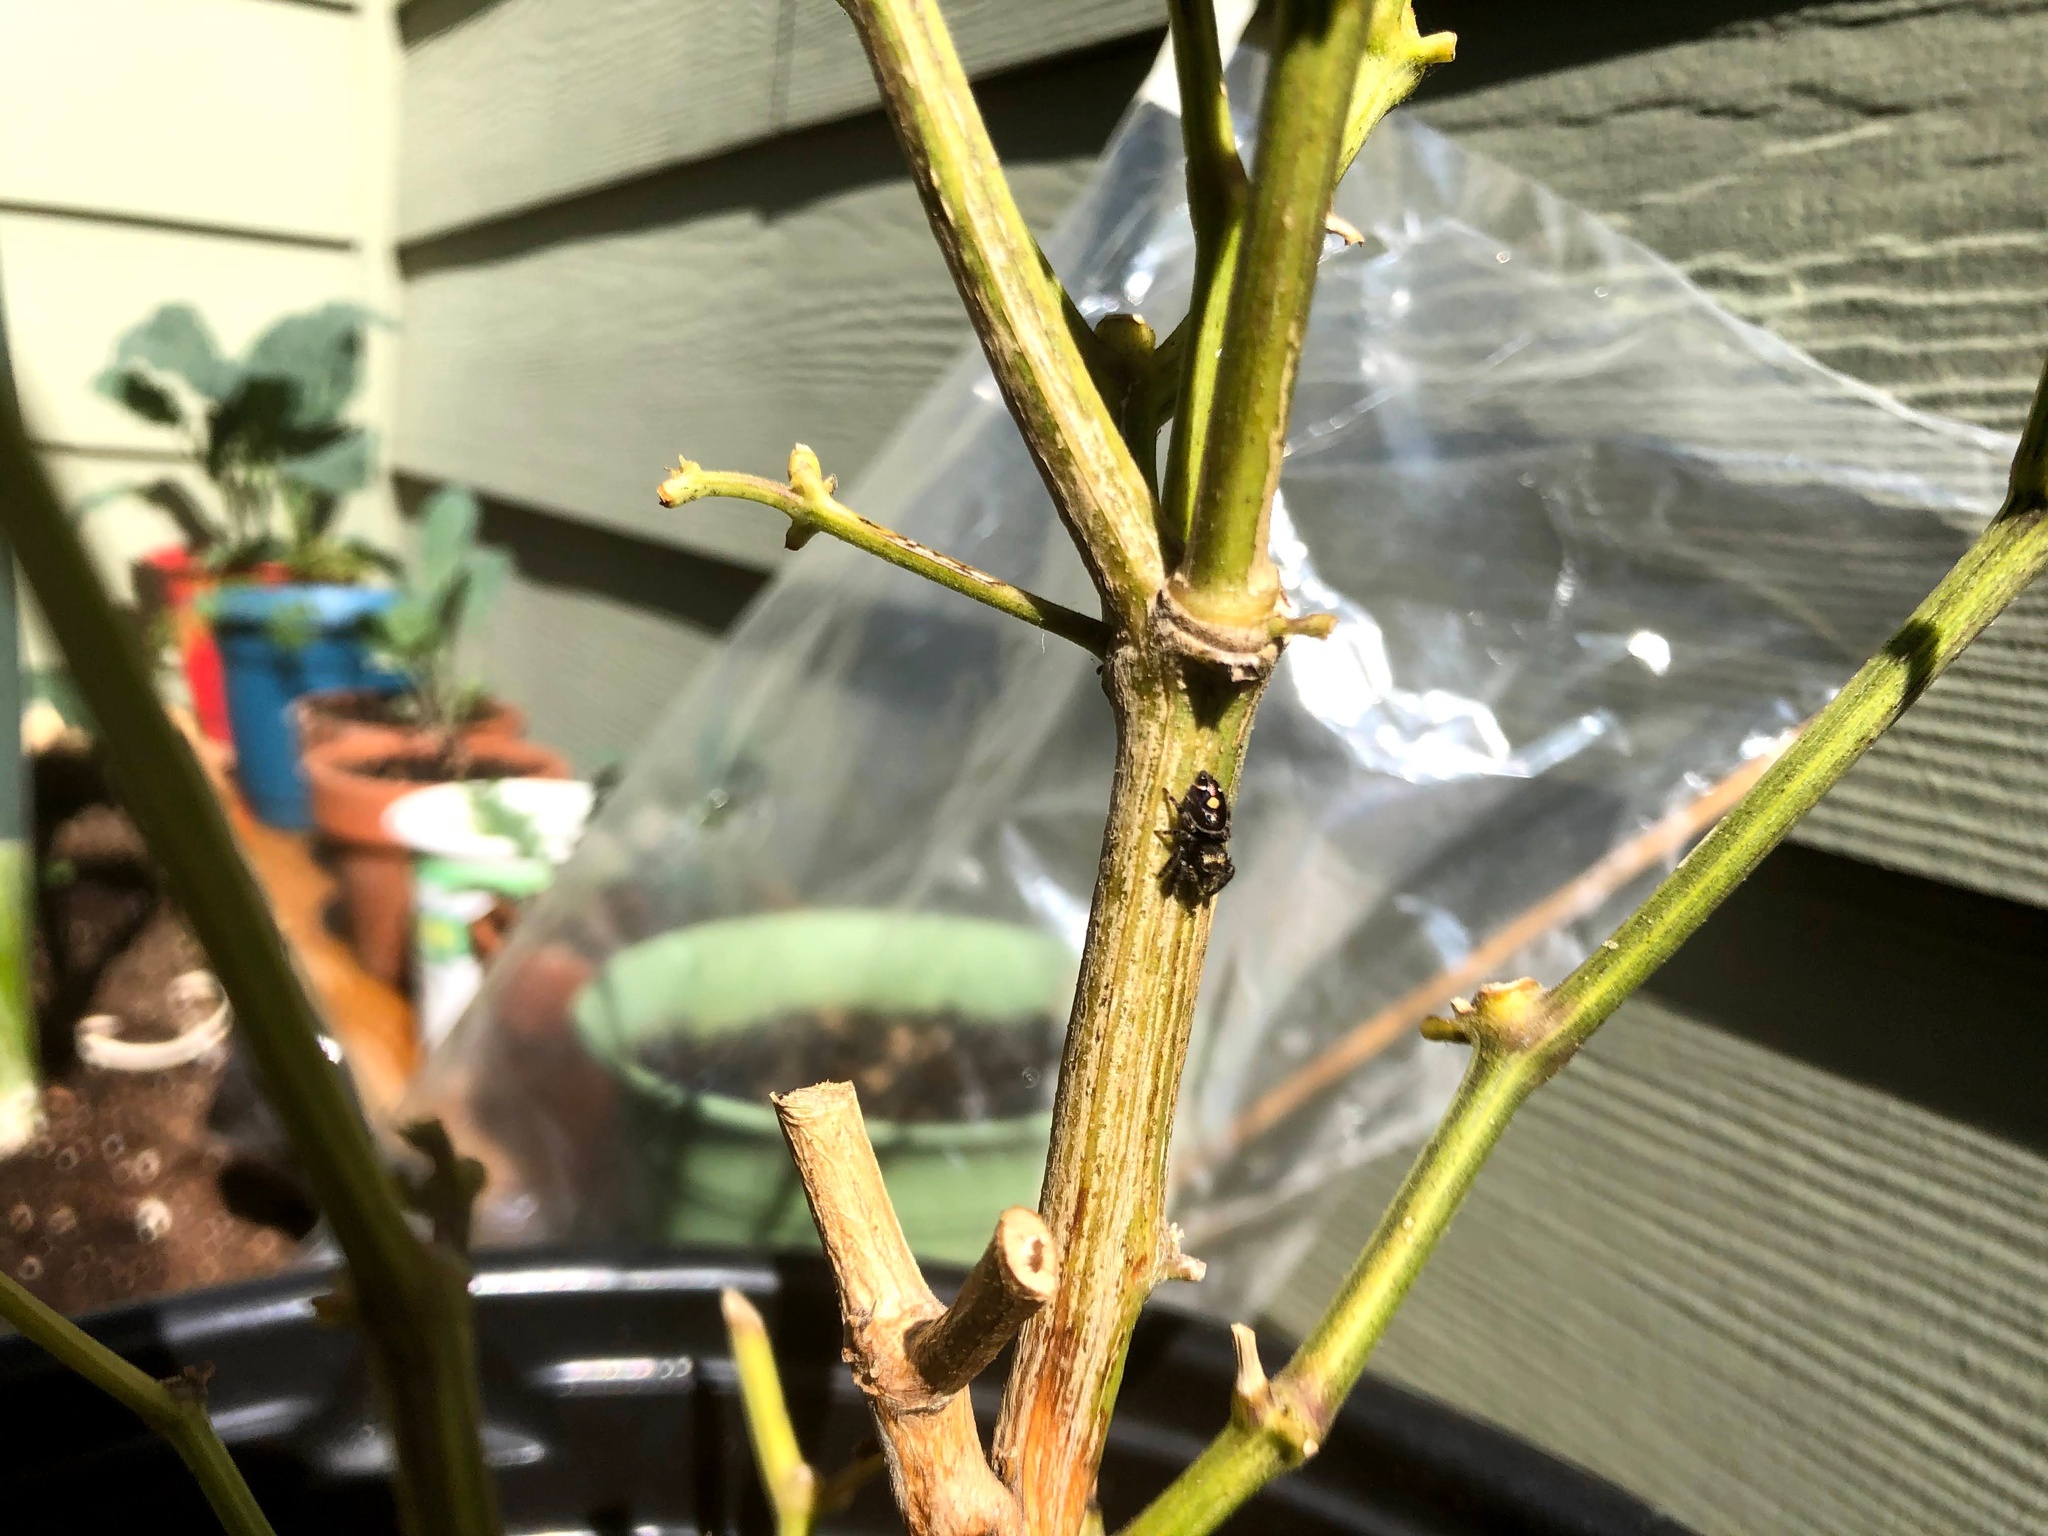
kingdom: Animalia
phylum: Arthropoda
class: Arachnida
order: Araneae
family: Salticidae
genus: Phidippus
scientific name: Phidippus audax
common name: Bold jumper
